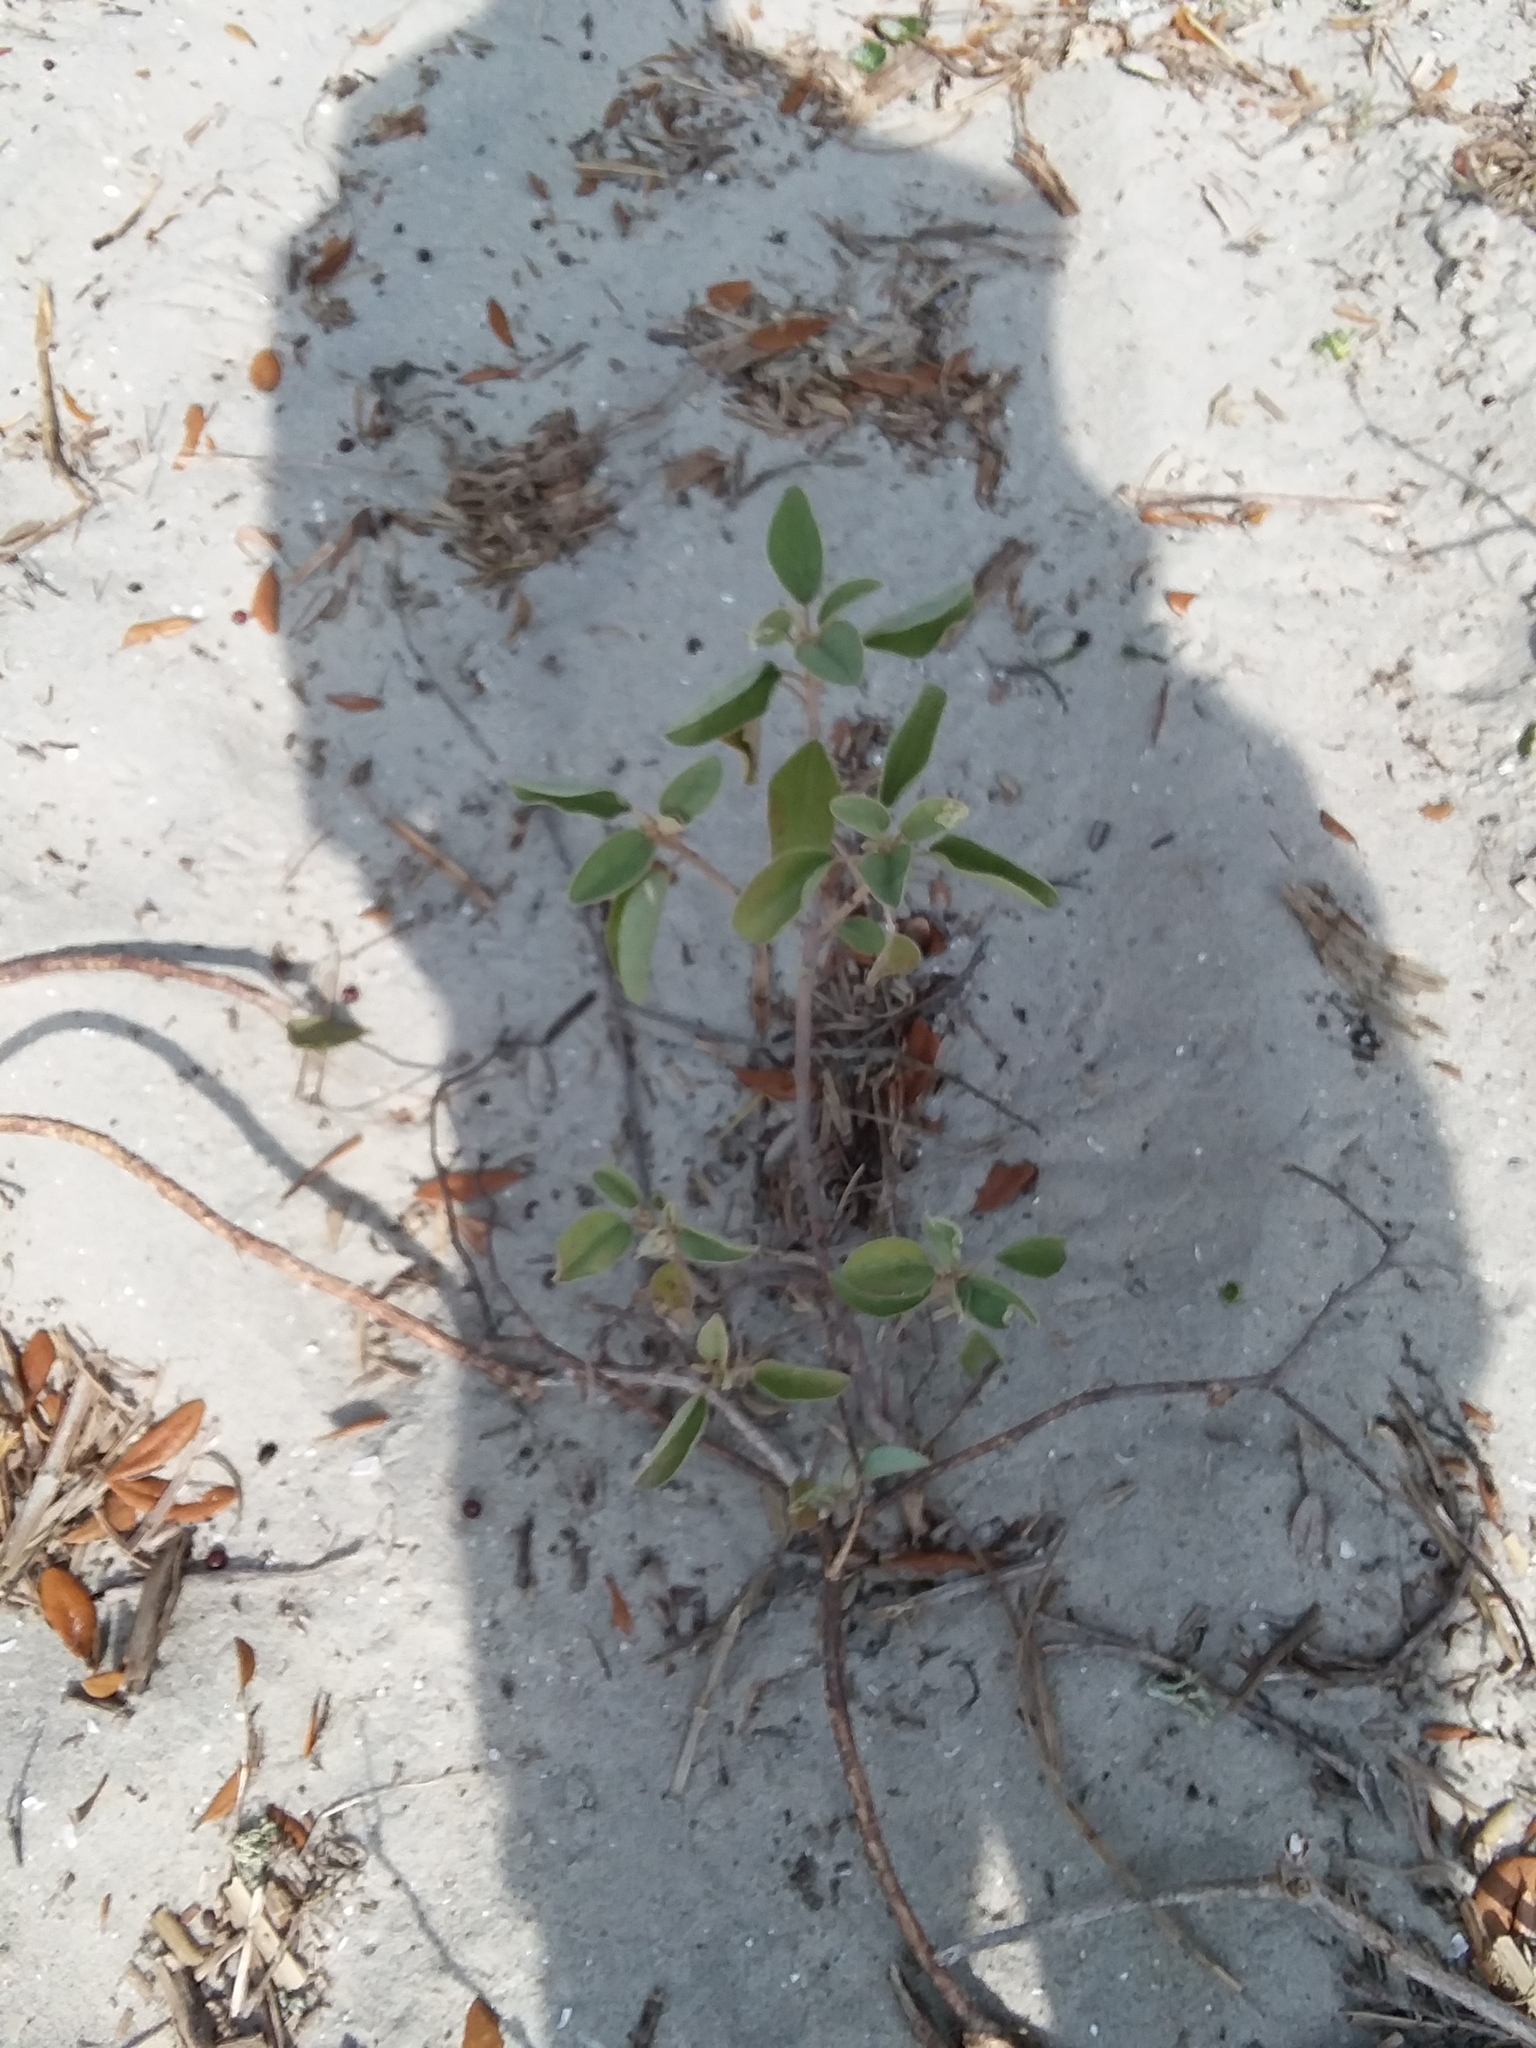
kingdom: Plantae
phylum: Tracheophyta
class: Magnoliopsida
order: Malpighiales
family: Euphorbiaceae
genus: Croton
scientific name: Croton punctatus
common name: Beach-tea
